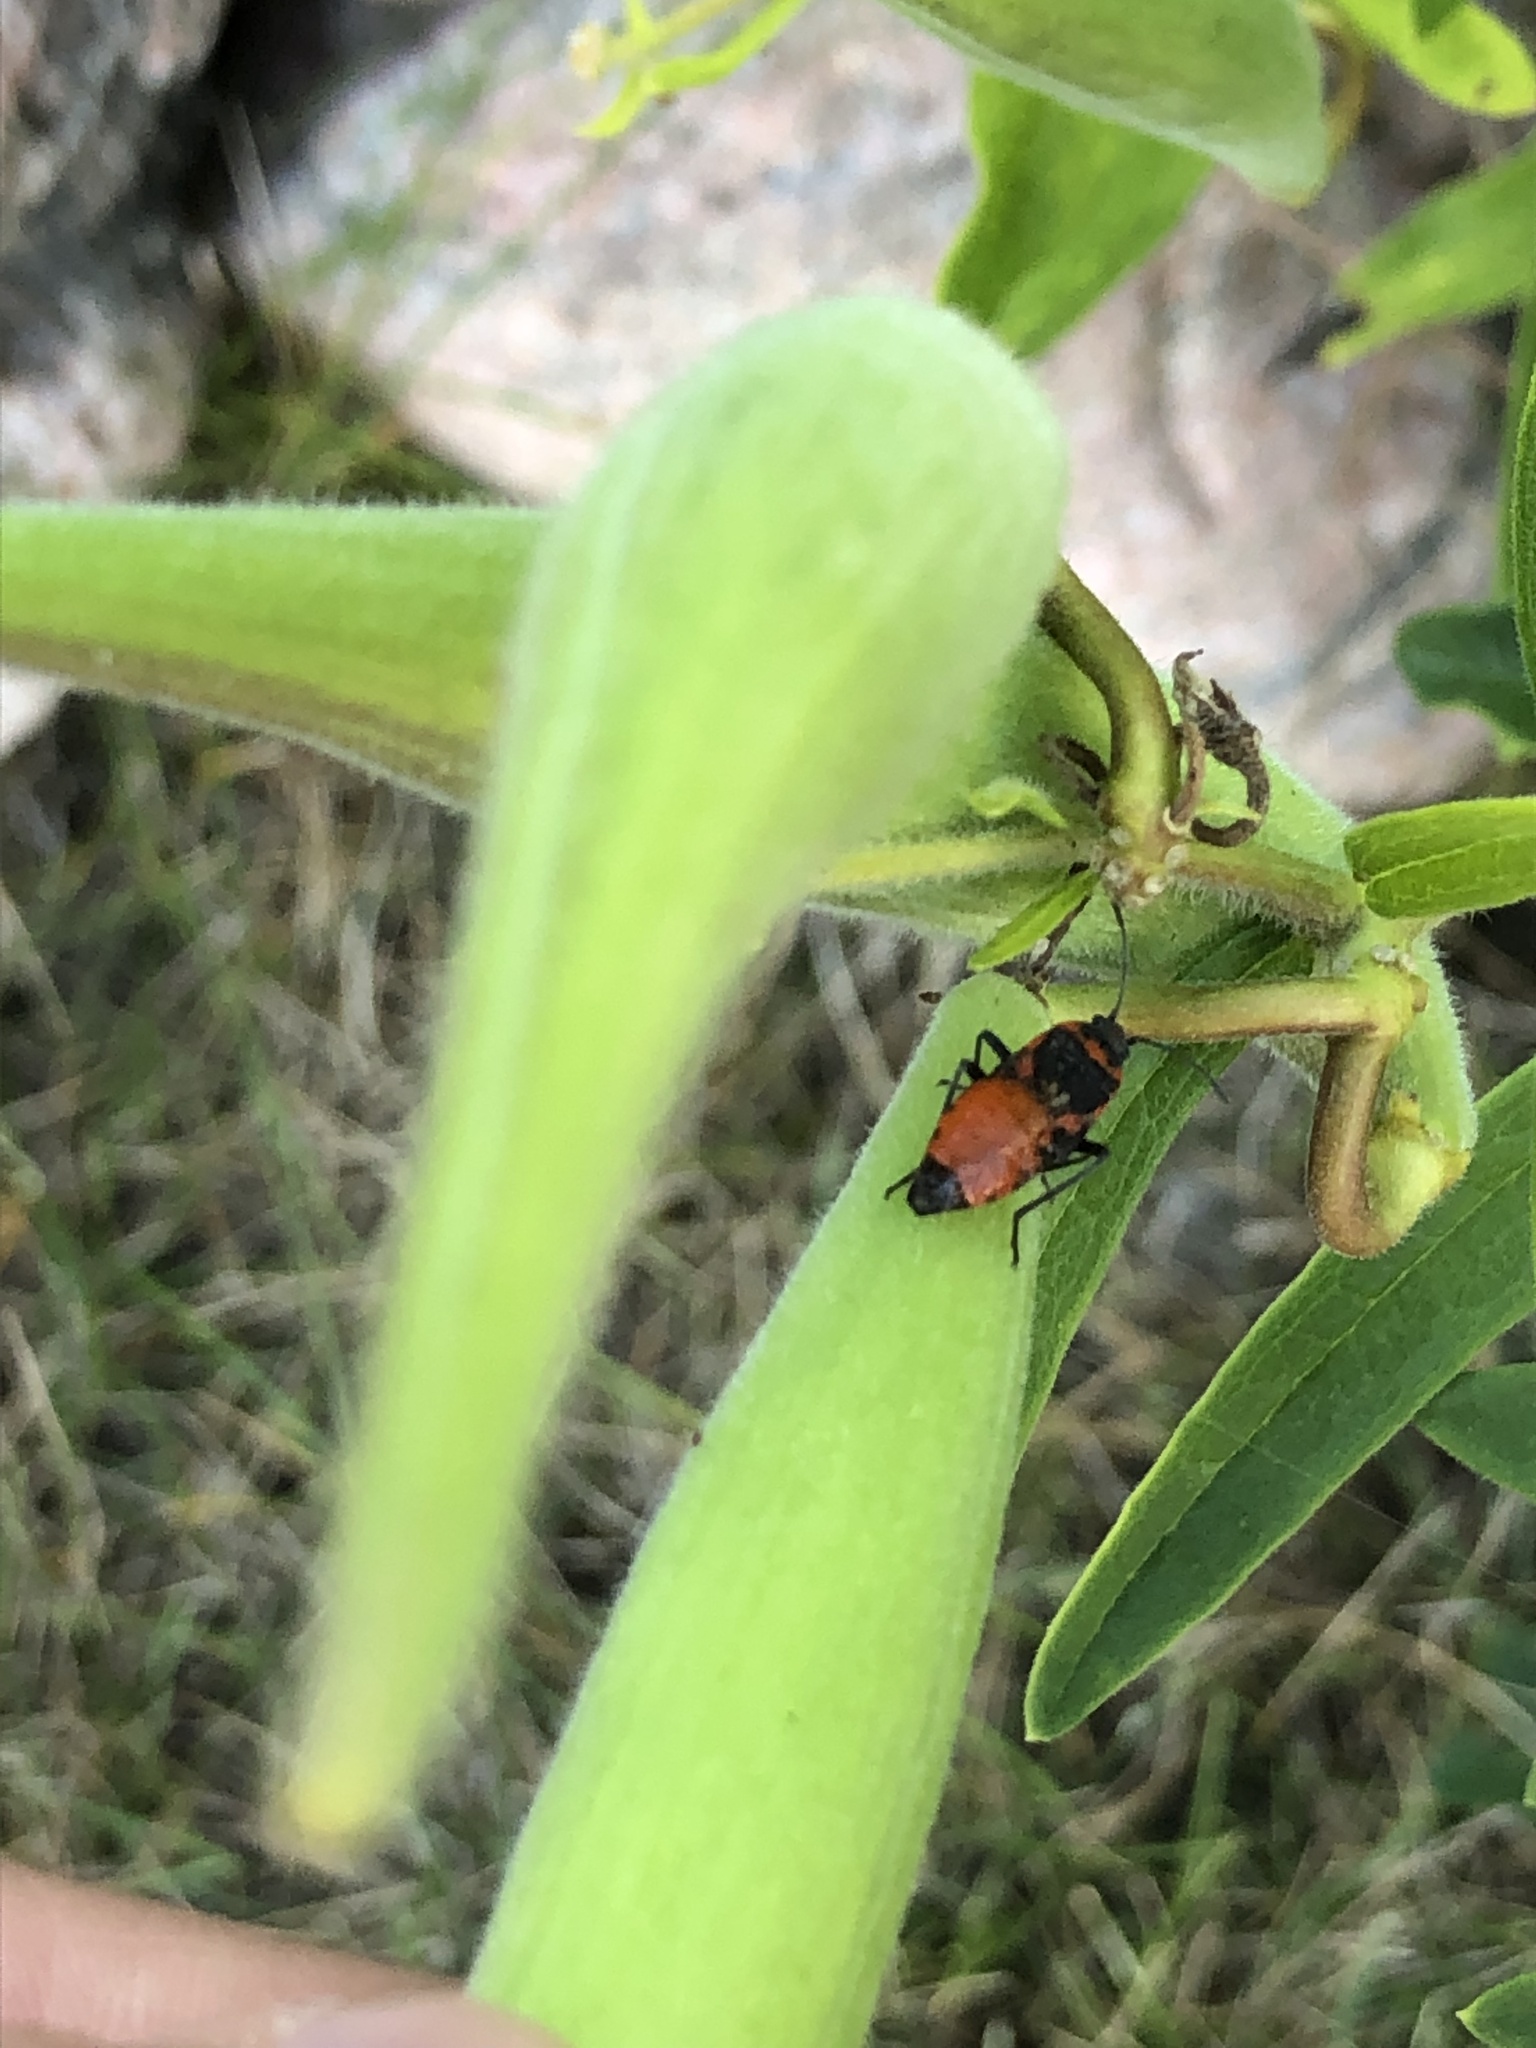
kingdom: Animalia
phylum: Arthropoda
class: Insecta
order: Hemiptera
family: Lygaeidae
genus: Lygaeus
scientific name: Lygaeus kalmii
